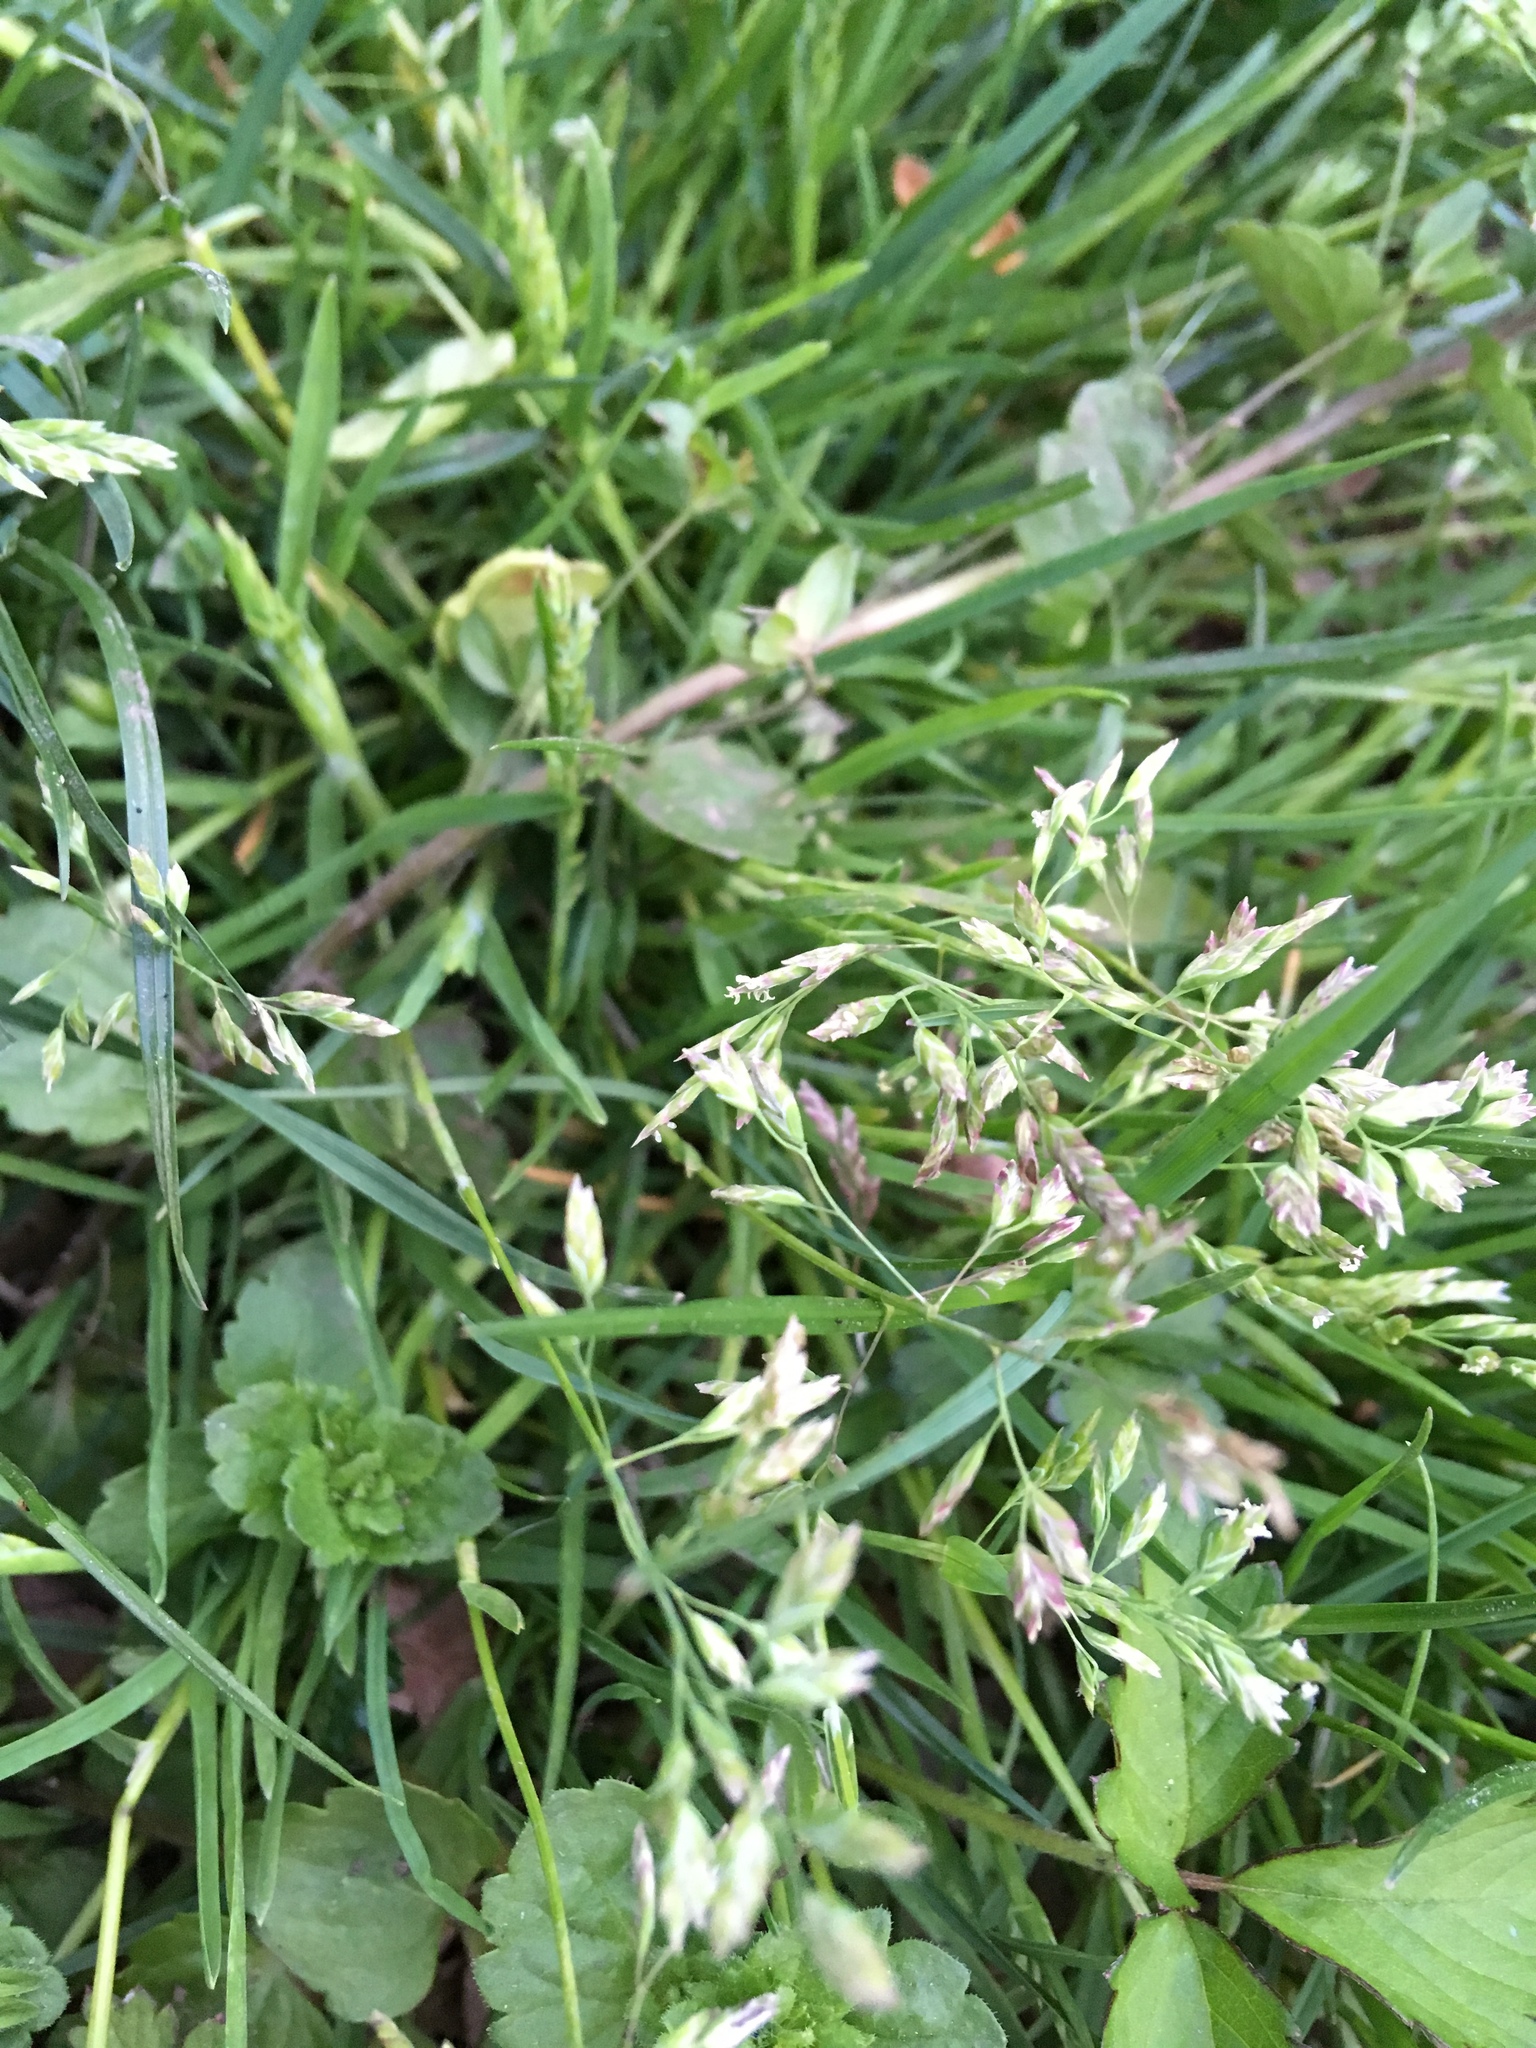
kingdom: Plantae
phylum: Tracheophyta
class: Liliopsida
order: Poales
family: Poaceae
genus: Poa
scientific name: Poa annua
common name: Annual bluegrass
